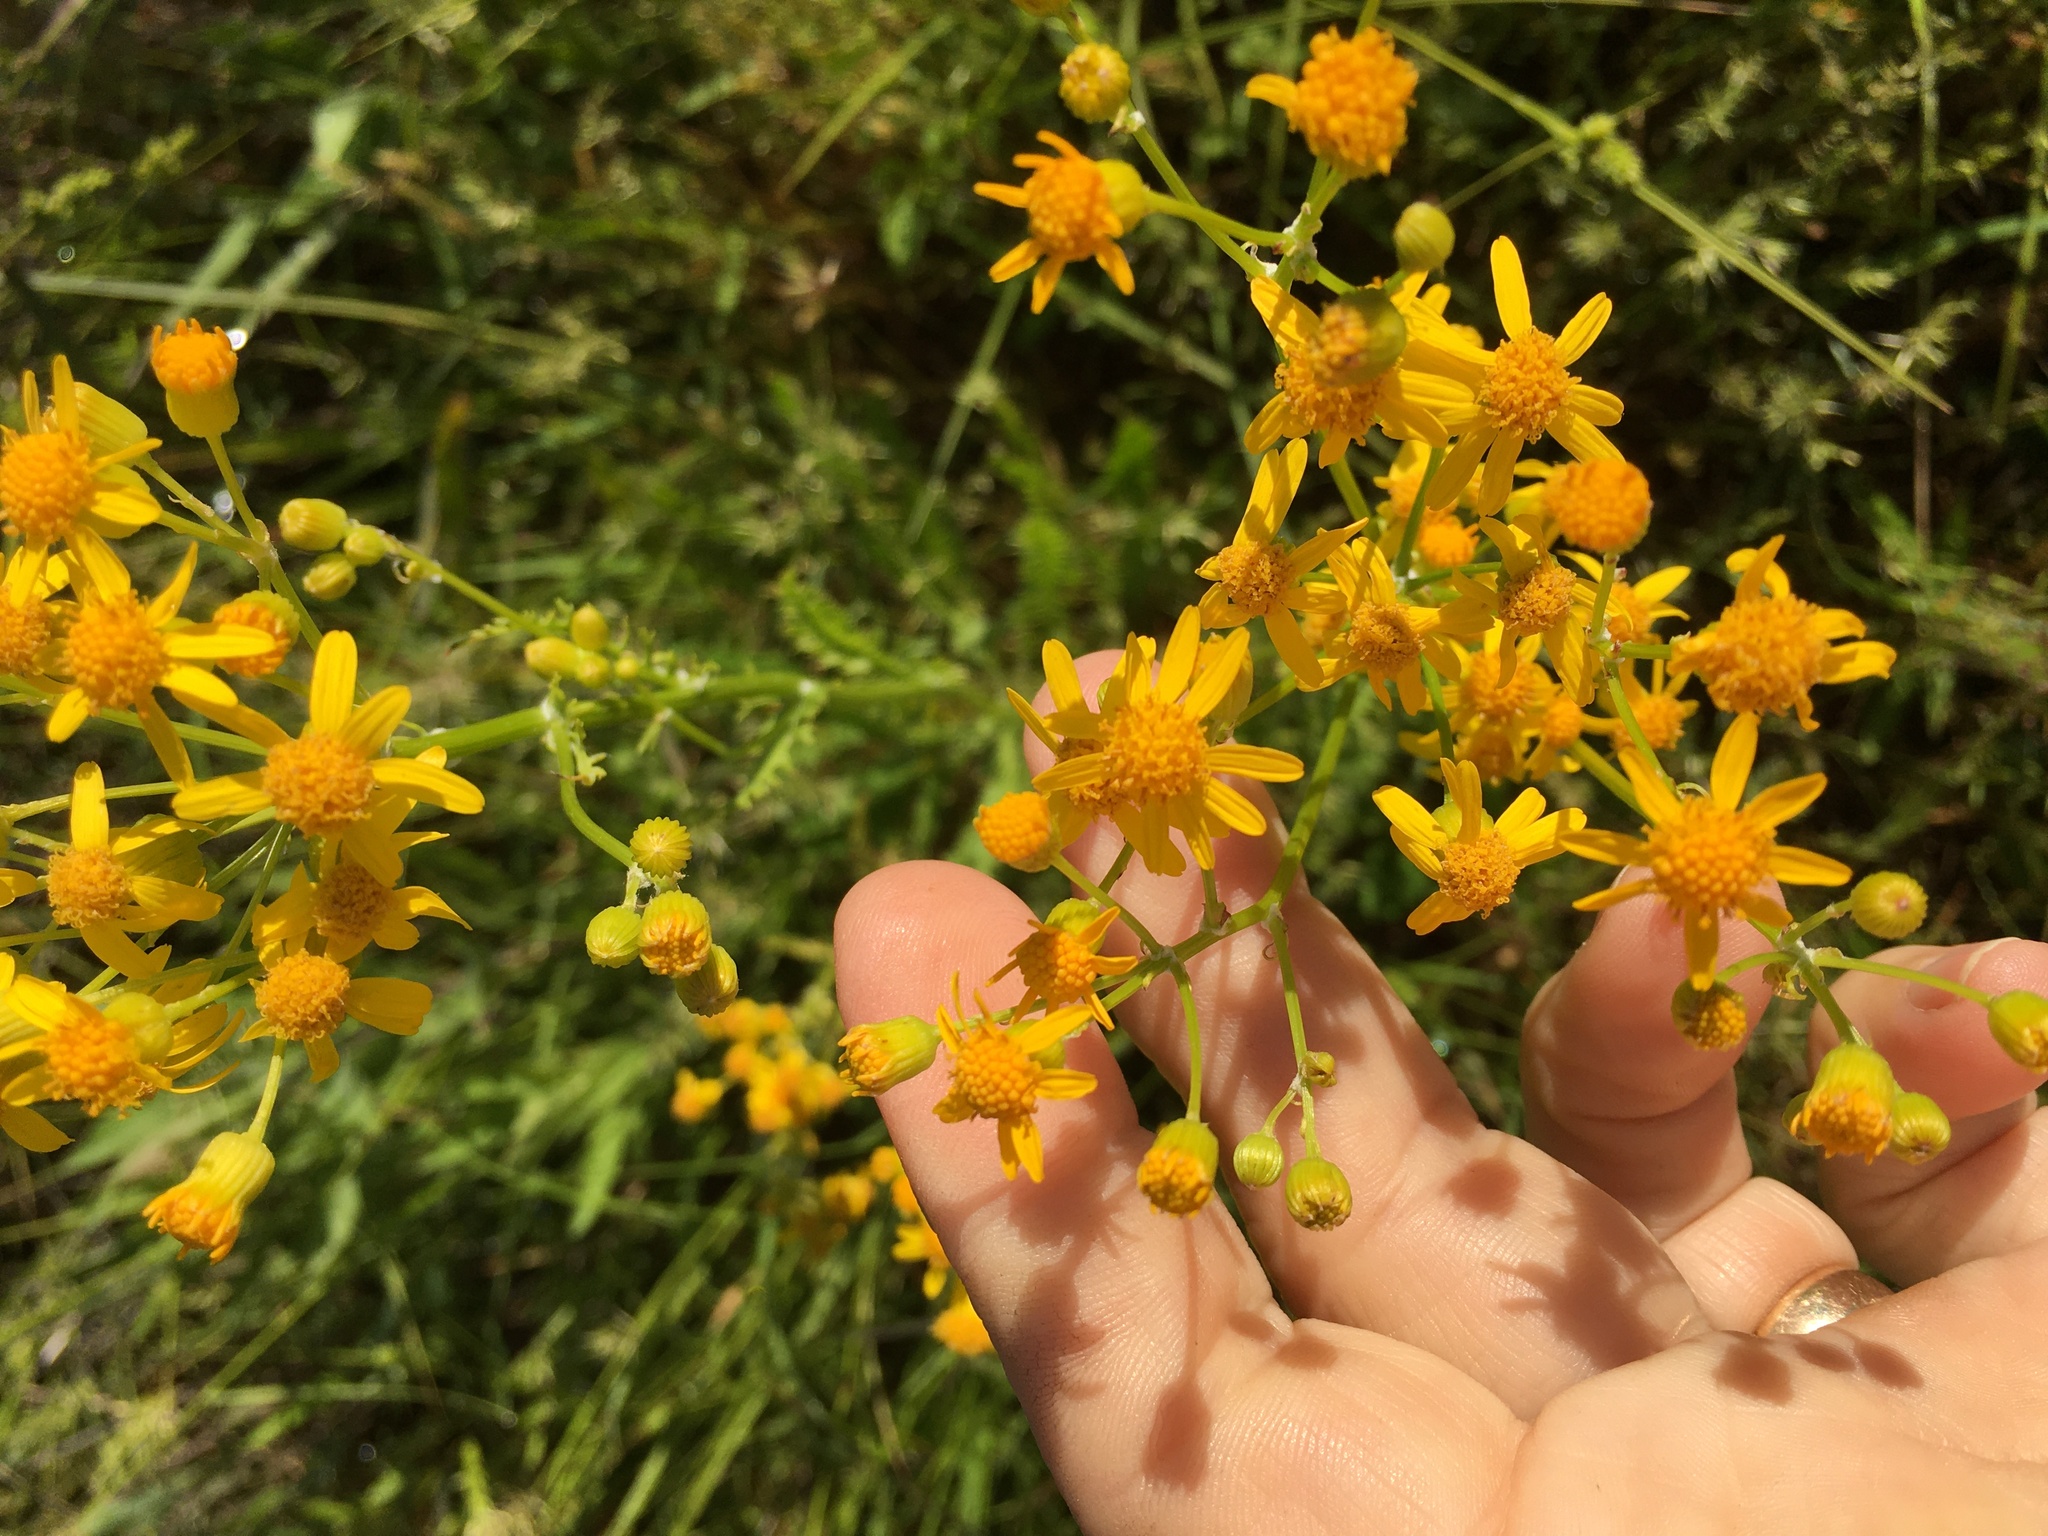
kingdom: Plantae
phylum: Tracheophyta
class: Magnoliopsida
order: Asterales
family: Asteraceae
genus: Packera
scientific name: Packera anonyma
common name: Small ragwort
